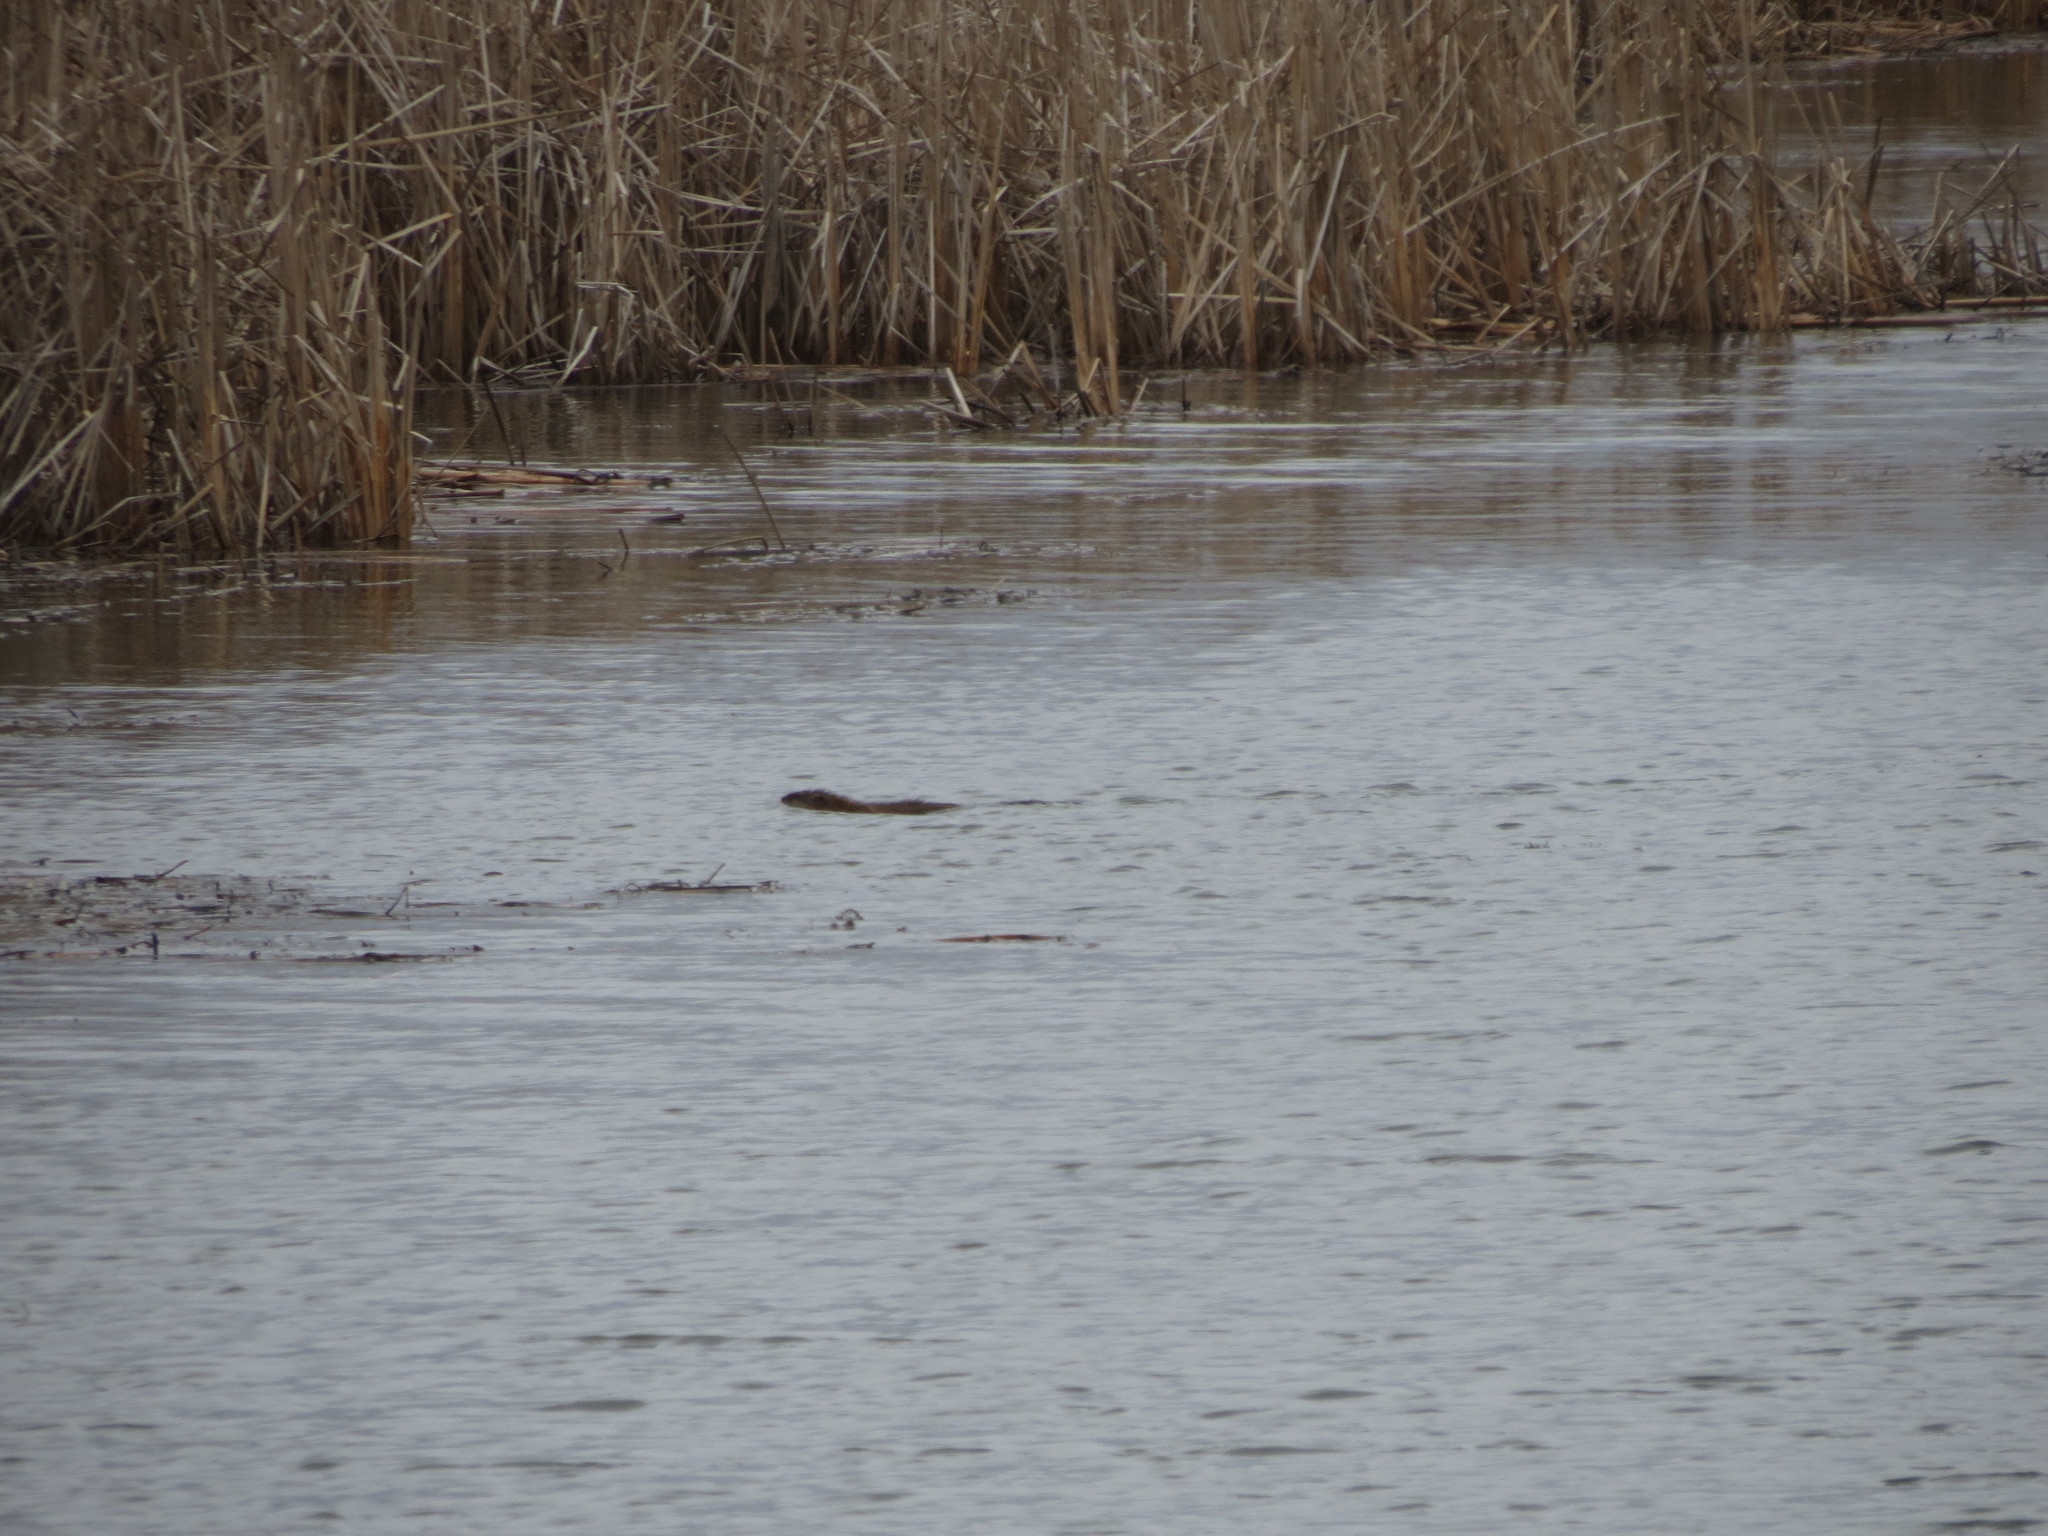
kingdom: Animalia
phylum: Chordata
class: Mammalia
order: Rodentia
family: Cricetidae
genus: Ondatra
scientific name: Ondatra zibethicus
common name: Muskrat
